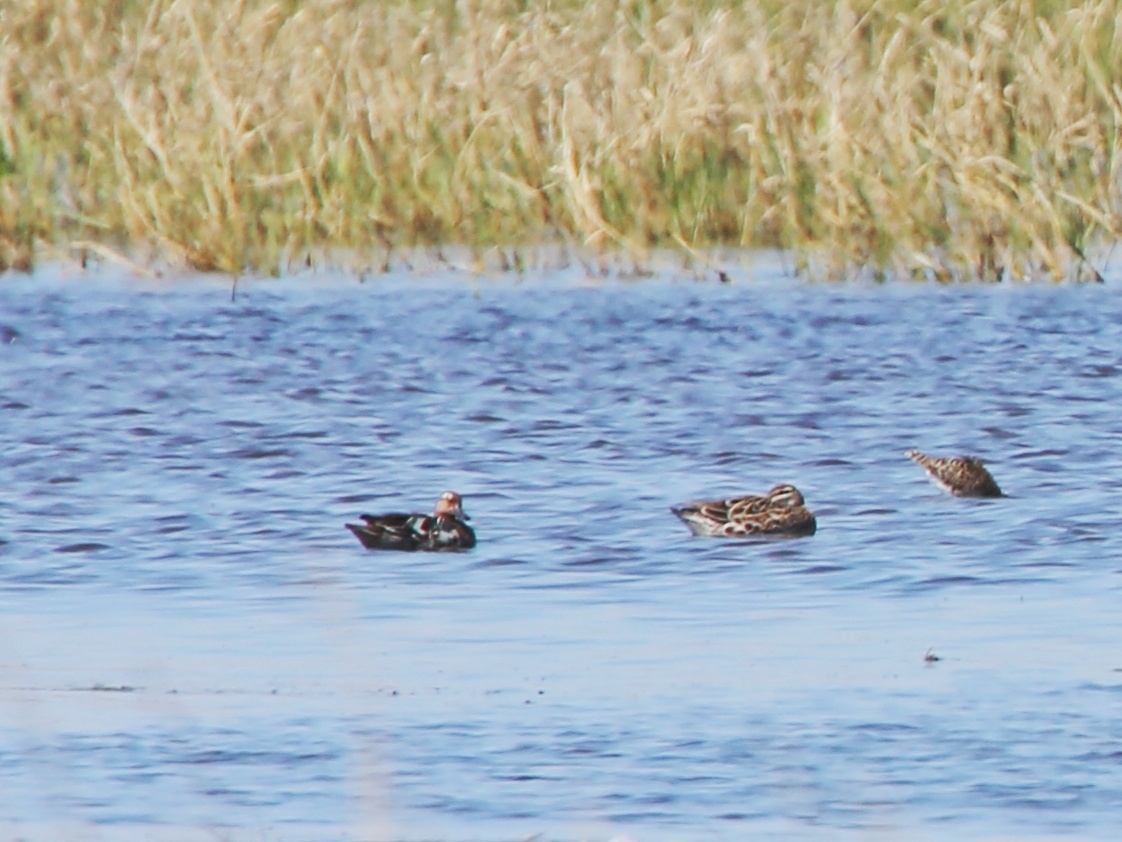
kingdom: Animalia
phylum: Chordata
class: Aves
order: Anseriformes
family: Anatidae
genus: Spatula
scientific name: Spatula querquedula
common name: Garganey
